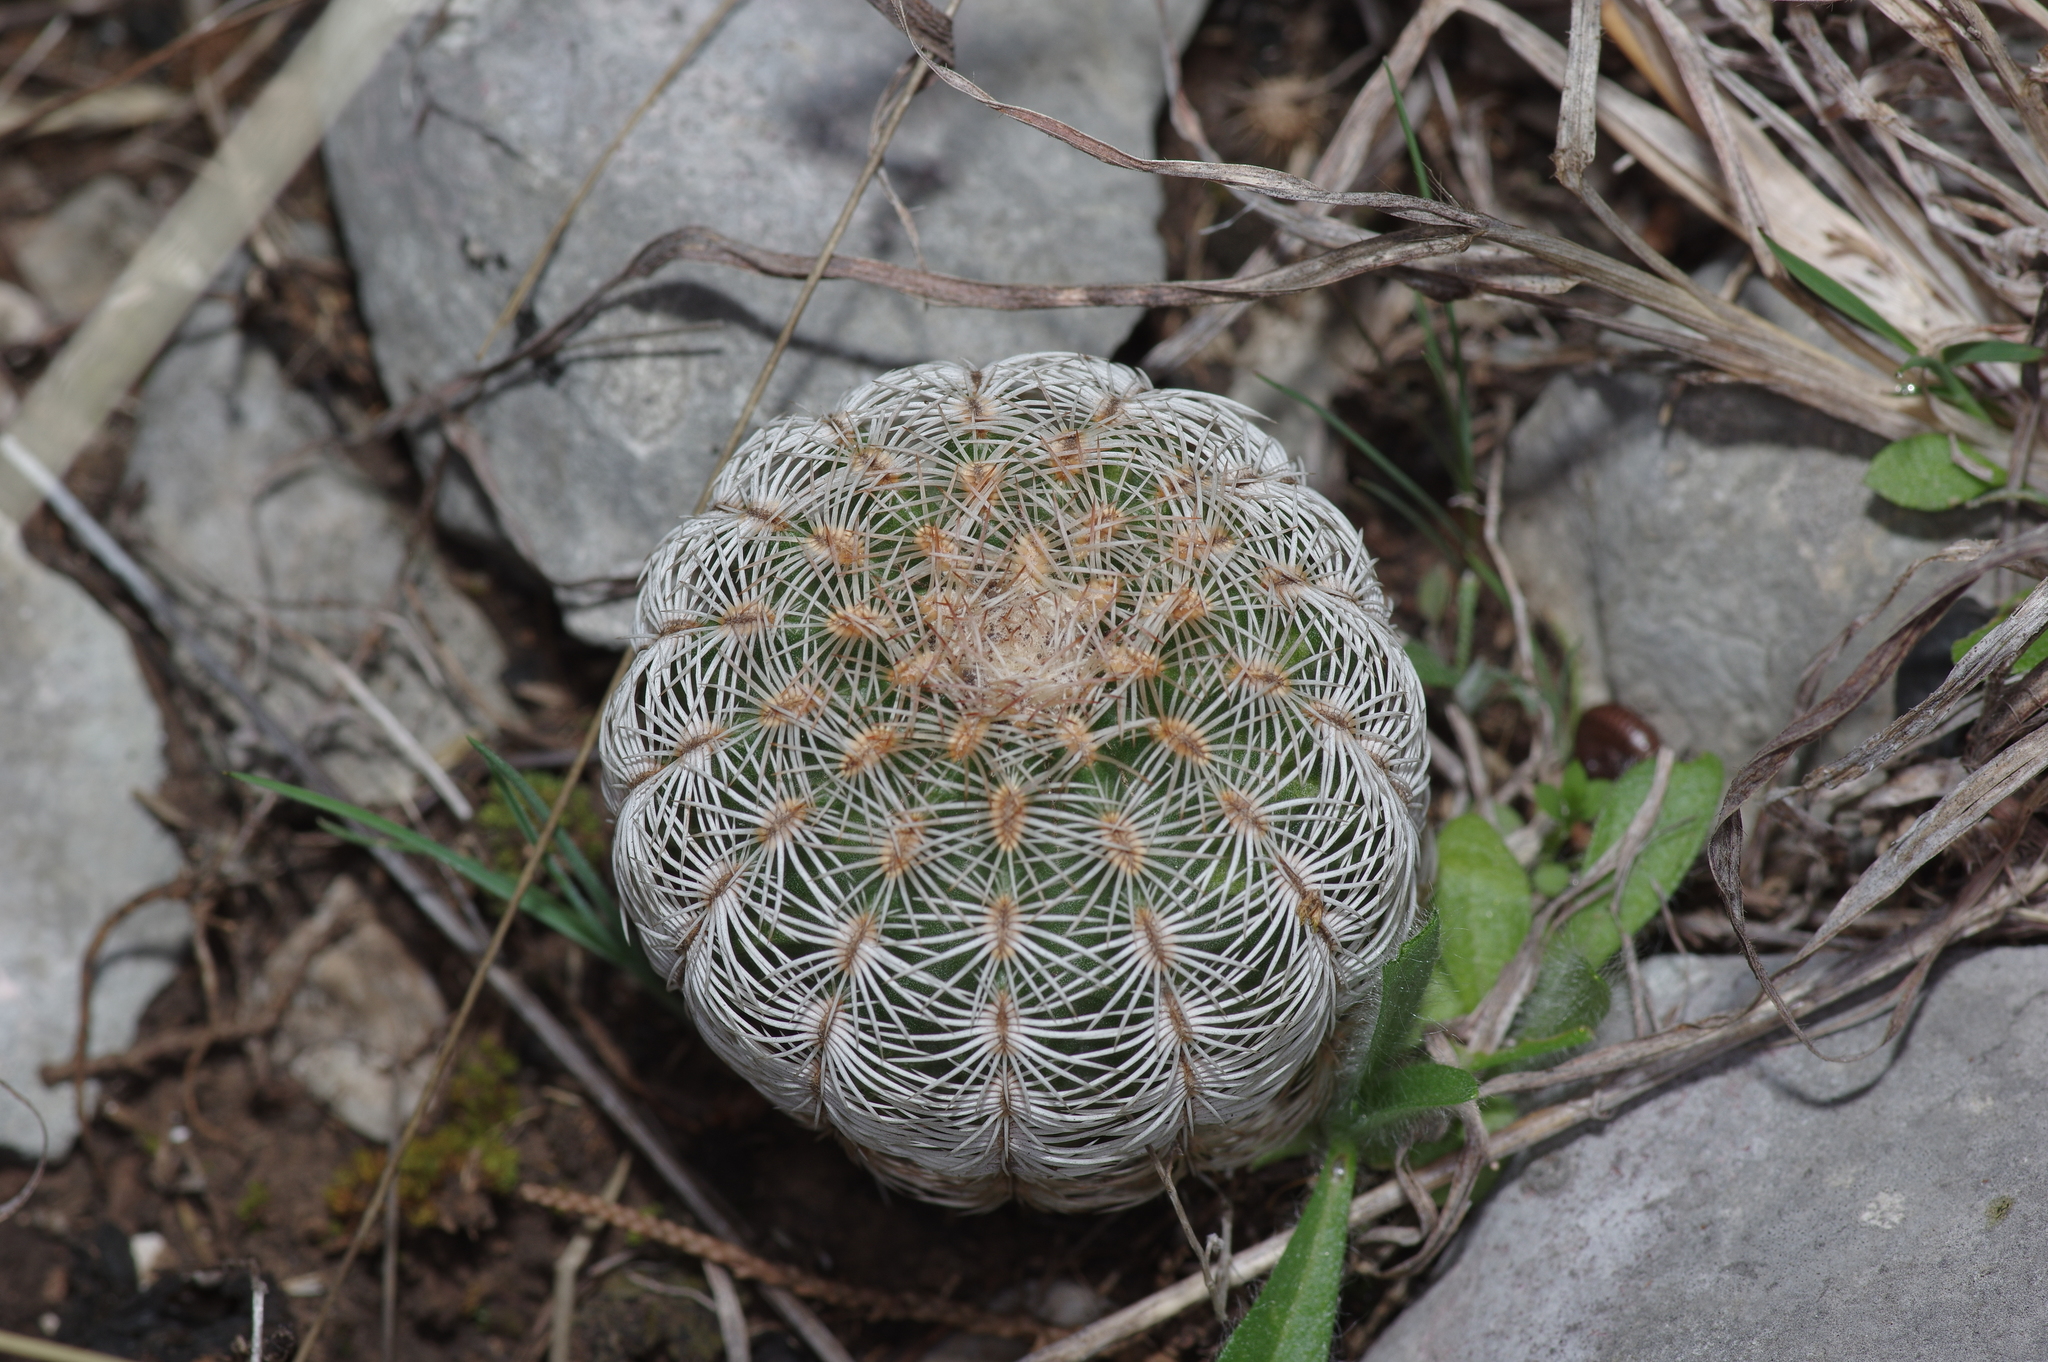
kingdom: Plantae
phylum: Tracheophyta
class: Magnoliopsida
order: Caryophyllales
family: Cactaceae
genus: Echinocereus
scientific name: Echinocereus reichenbachii
